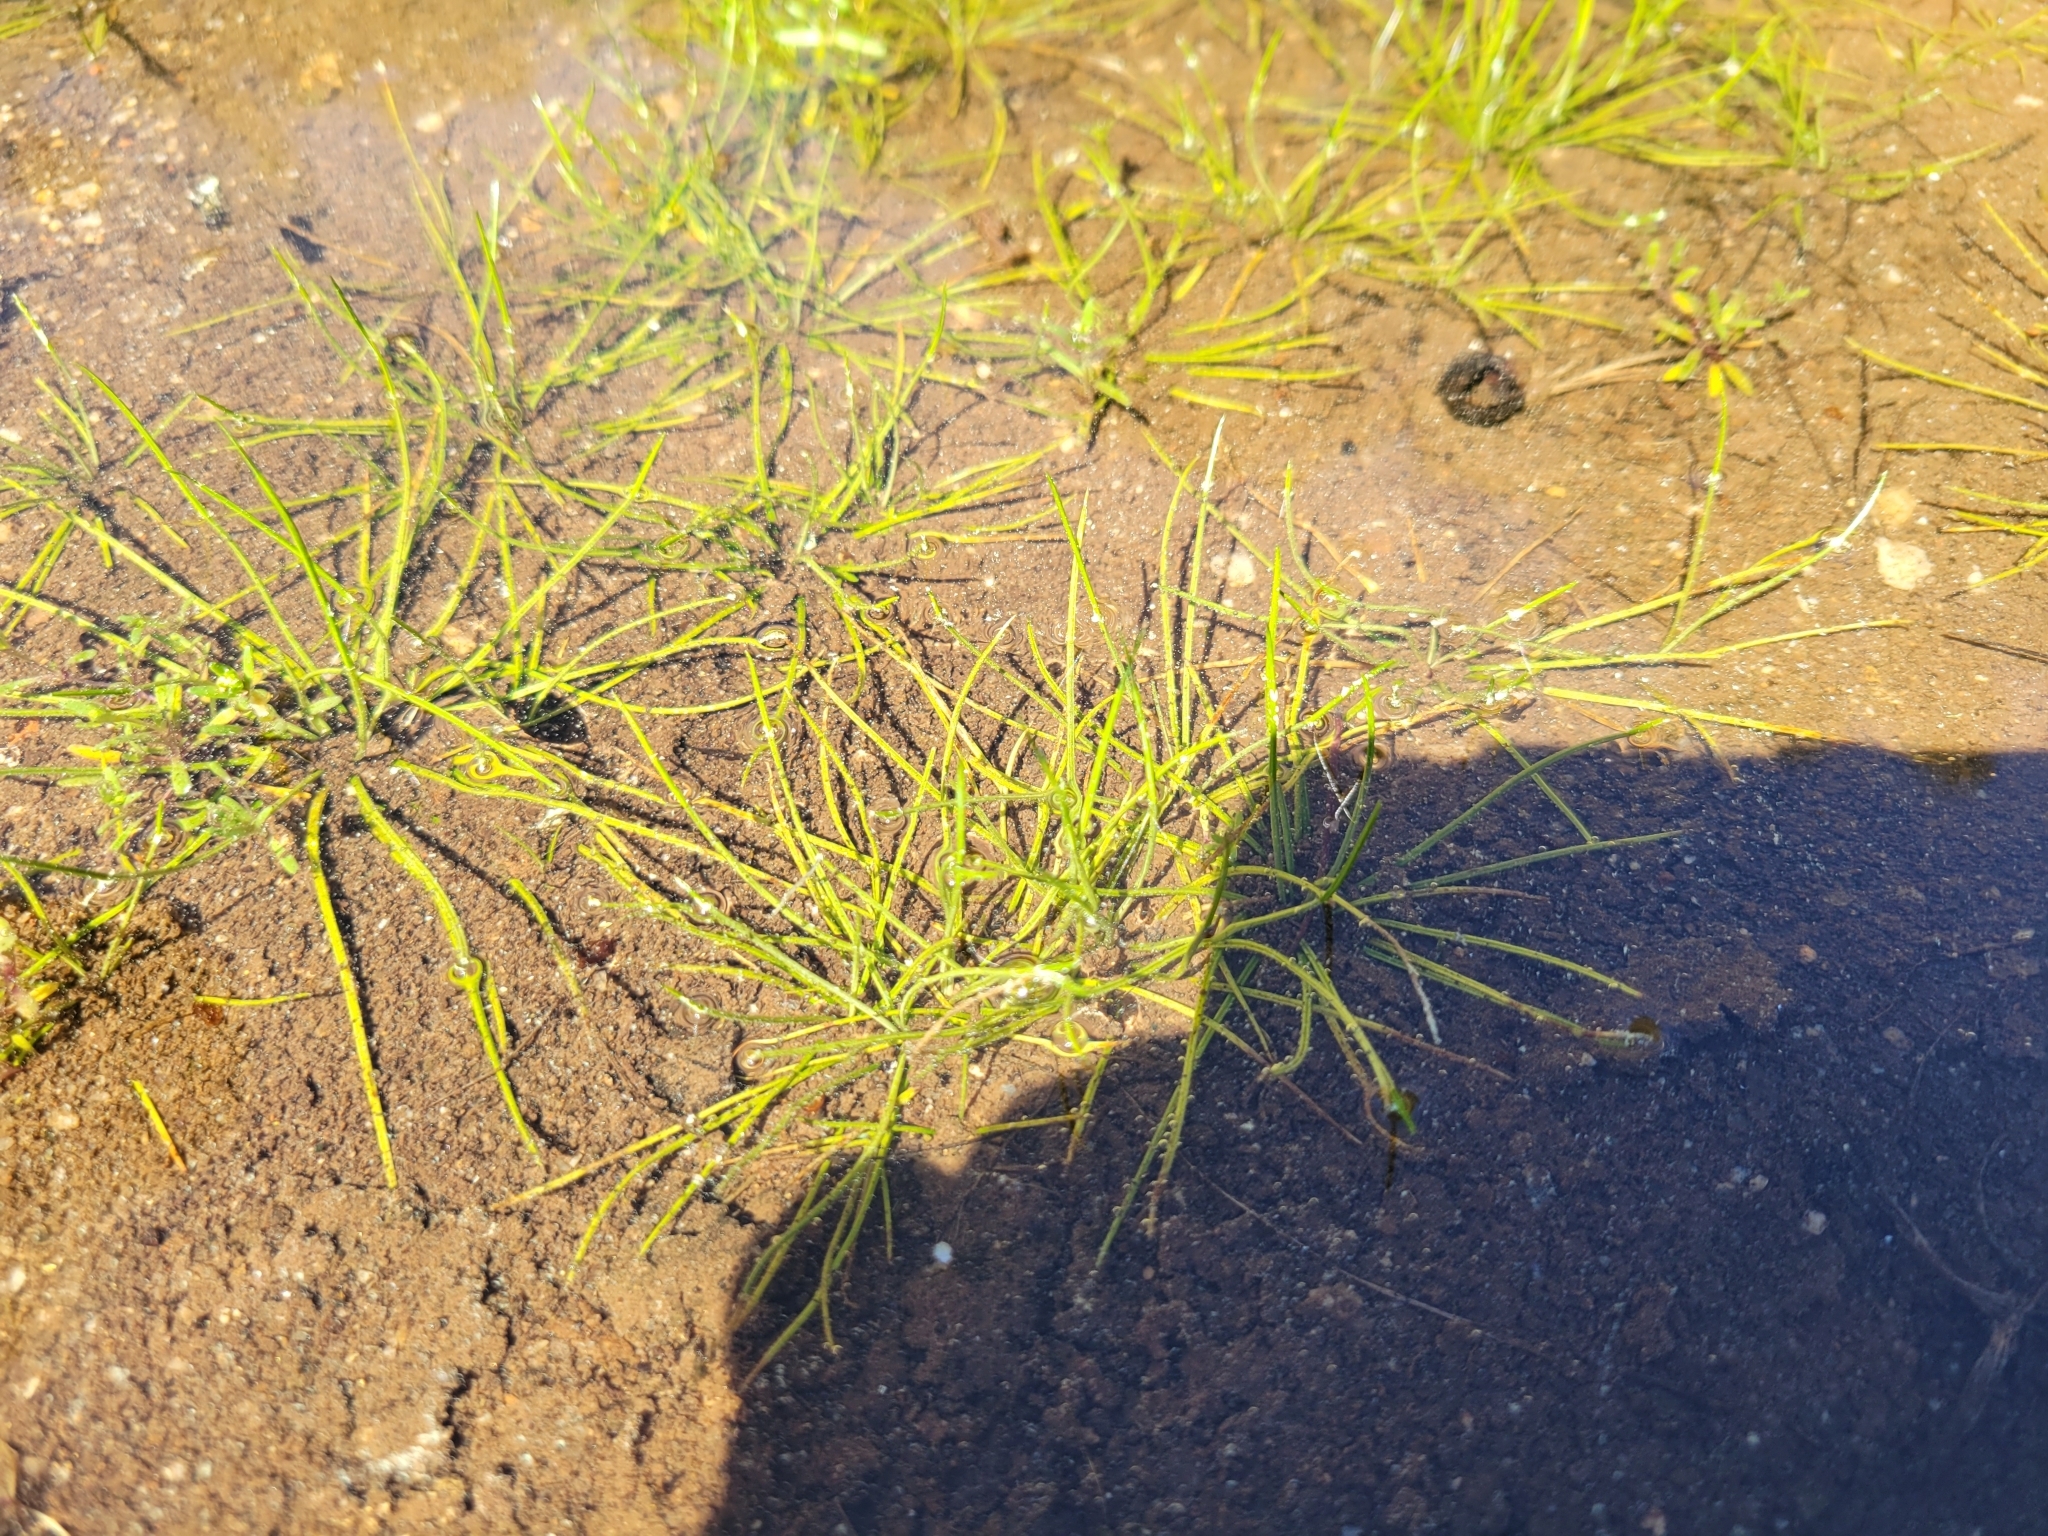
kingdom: Plantae
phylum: Tracheophyta
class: Lycopodiopsida
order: Isoetales
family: Isoetaceae
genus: Isoetes
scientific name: Isoetes melanospora
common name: Black-spore quillwort
